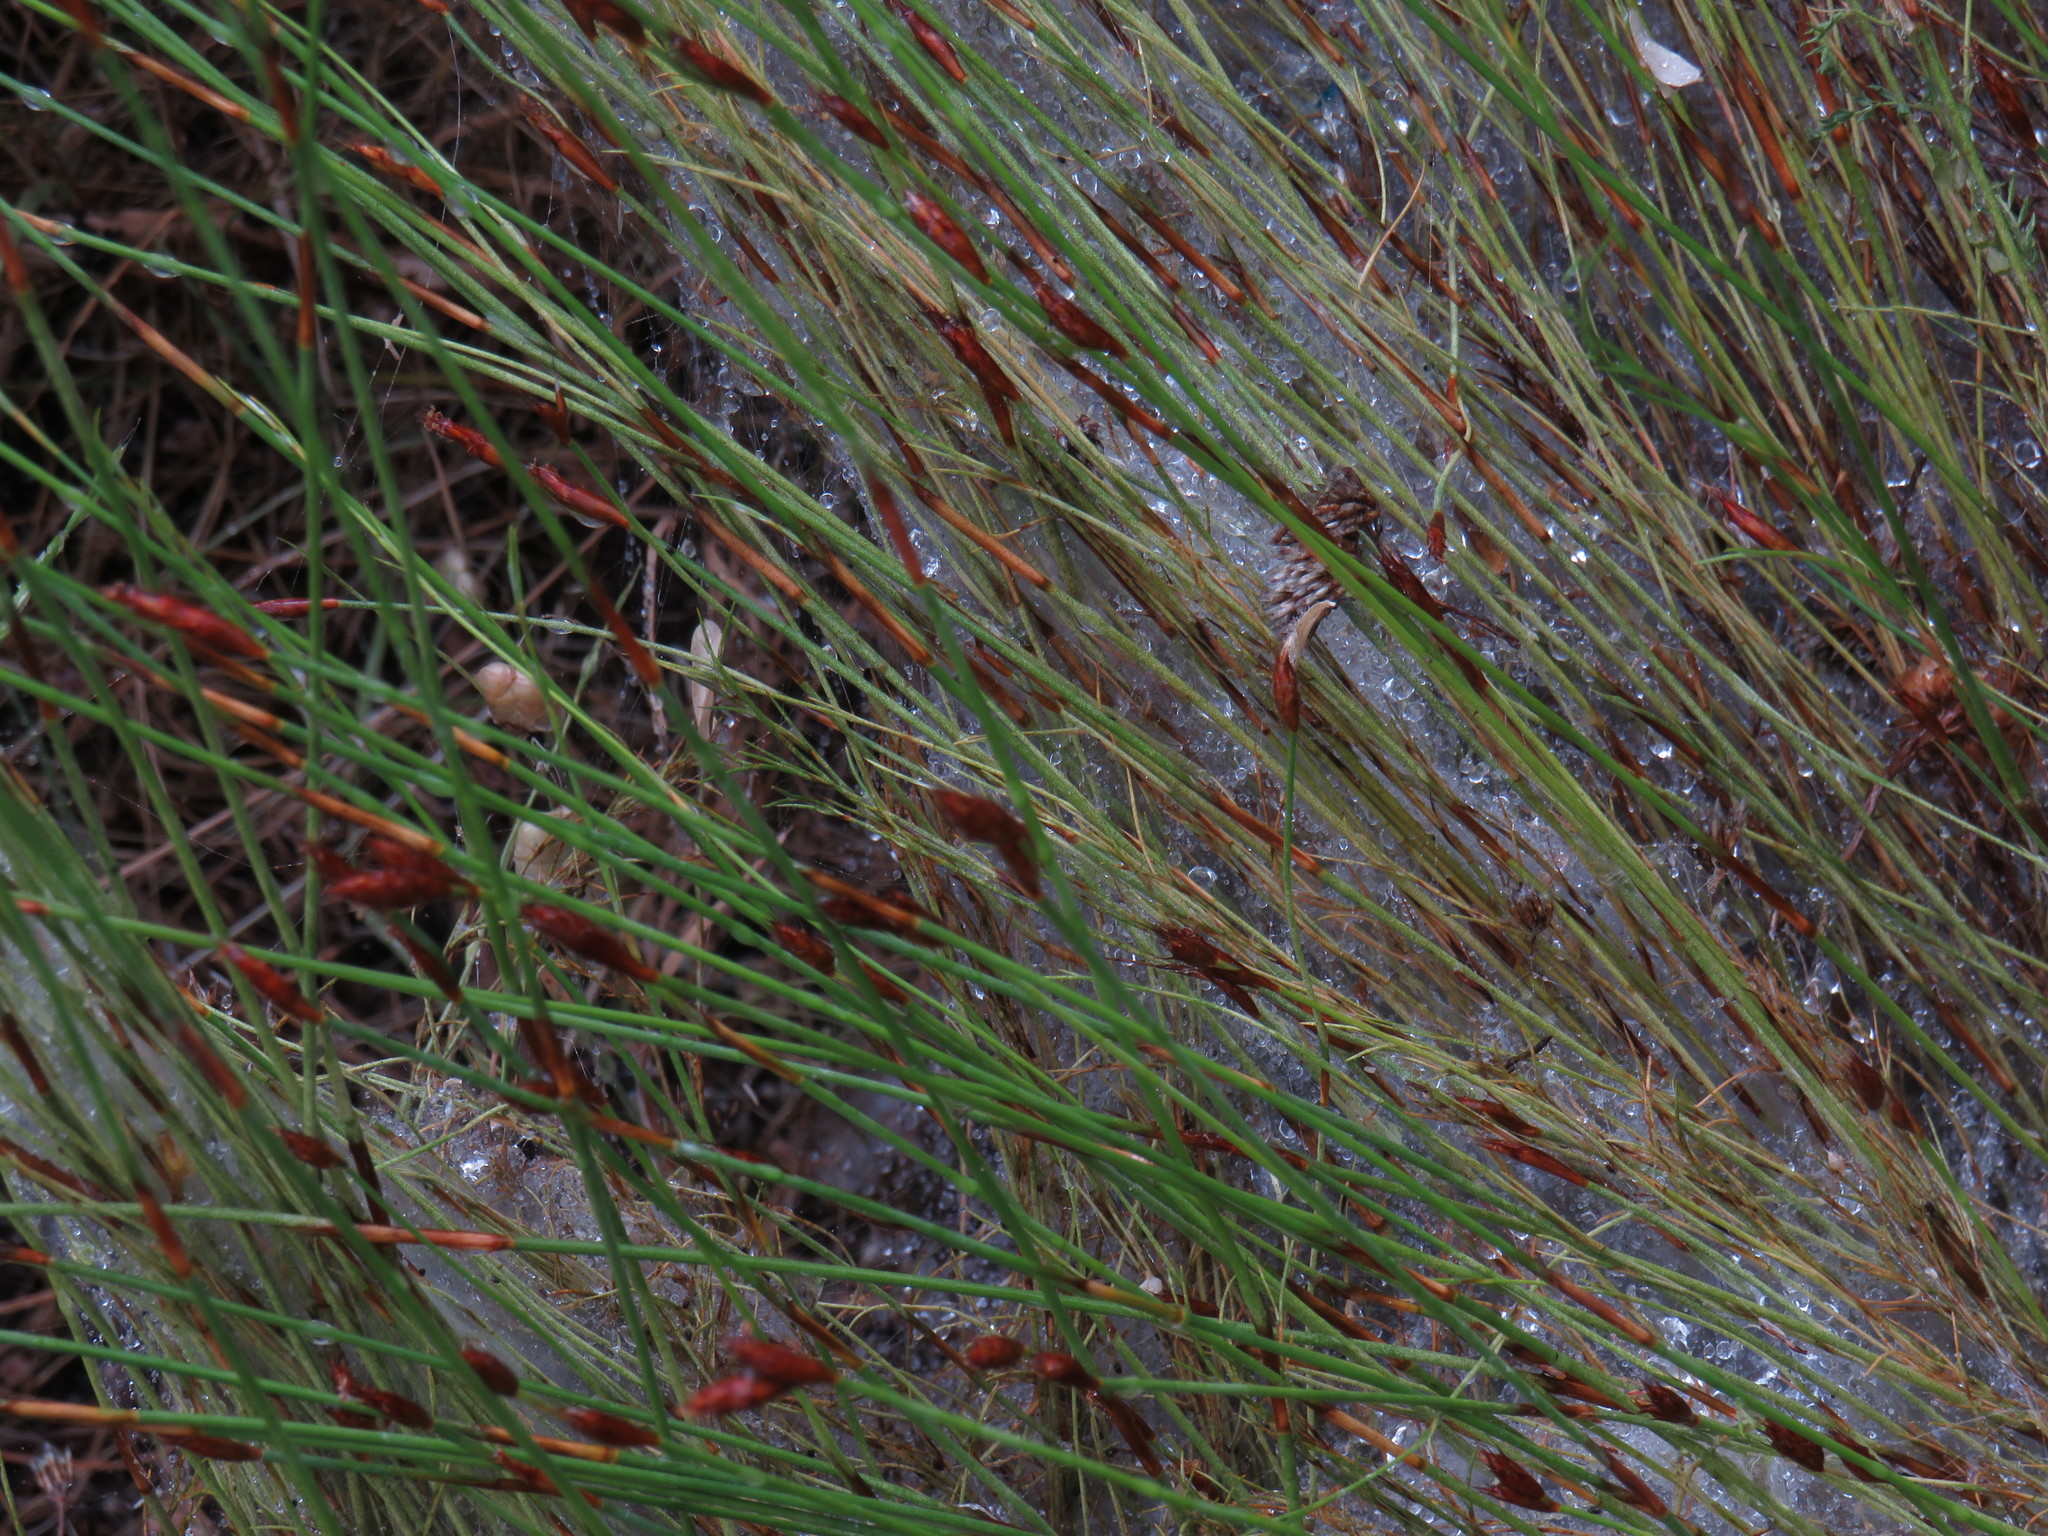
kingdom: Plantae
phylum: Tracheophyta
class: Liliopsida
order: Poales
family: Restionaceae
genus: Restio
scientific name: Restio capensis
